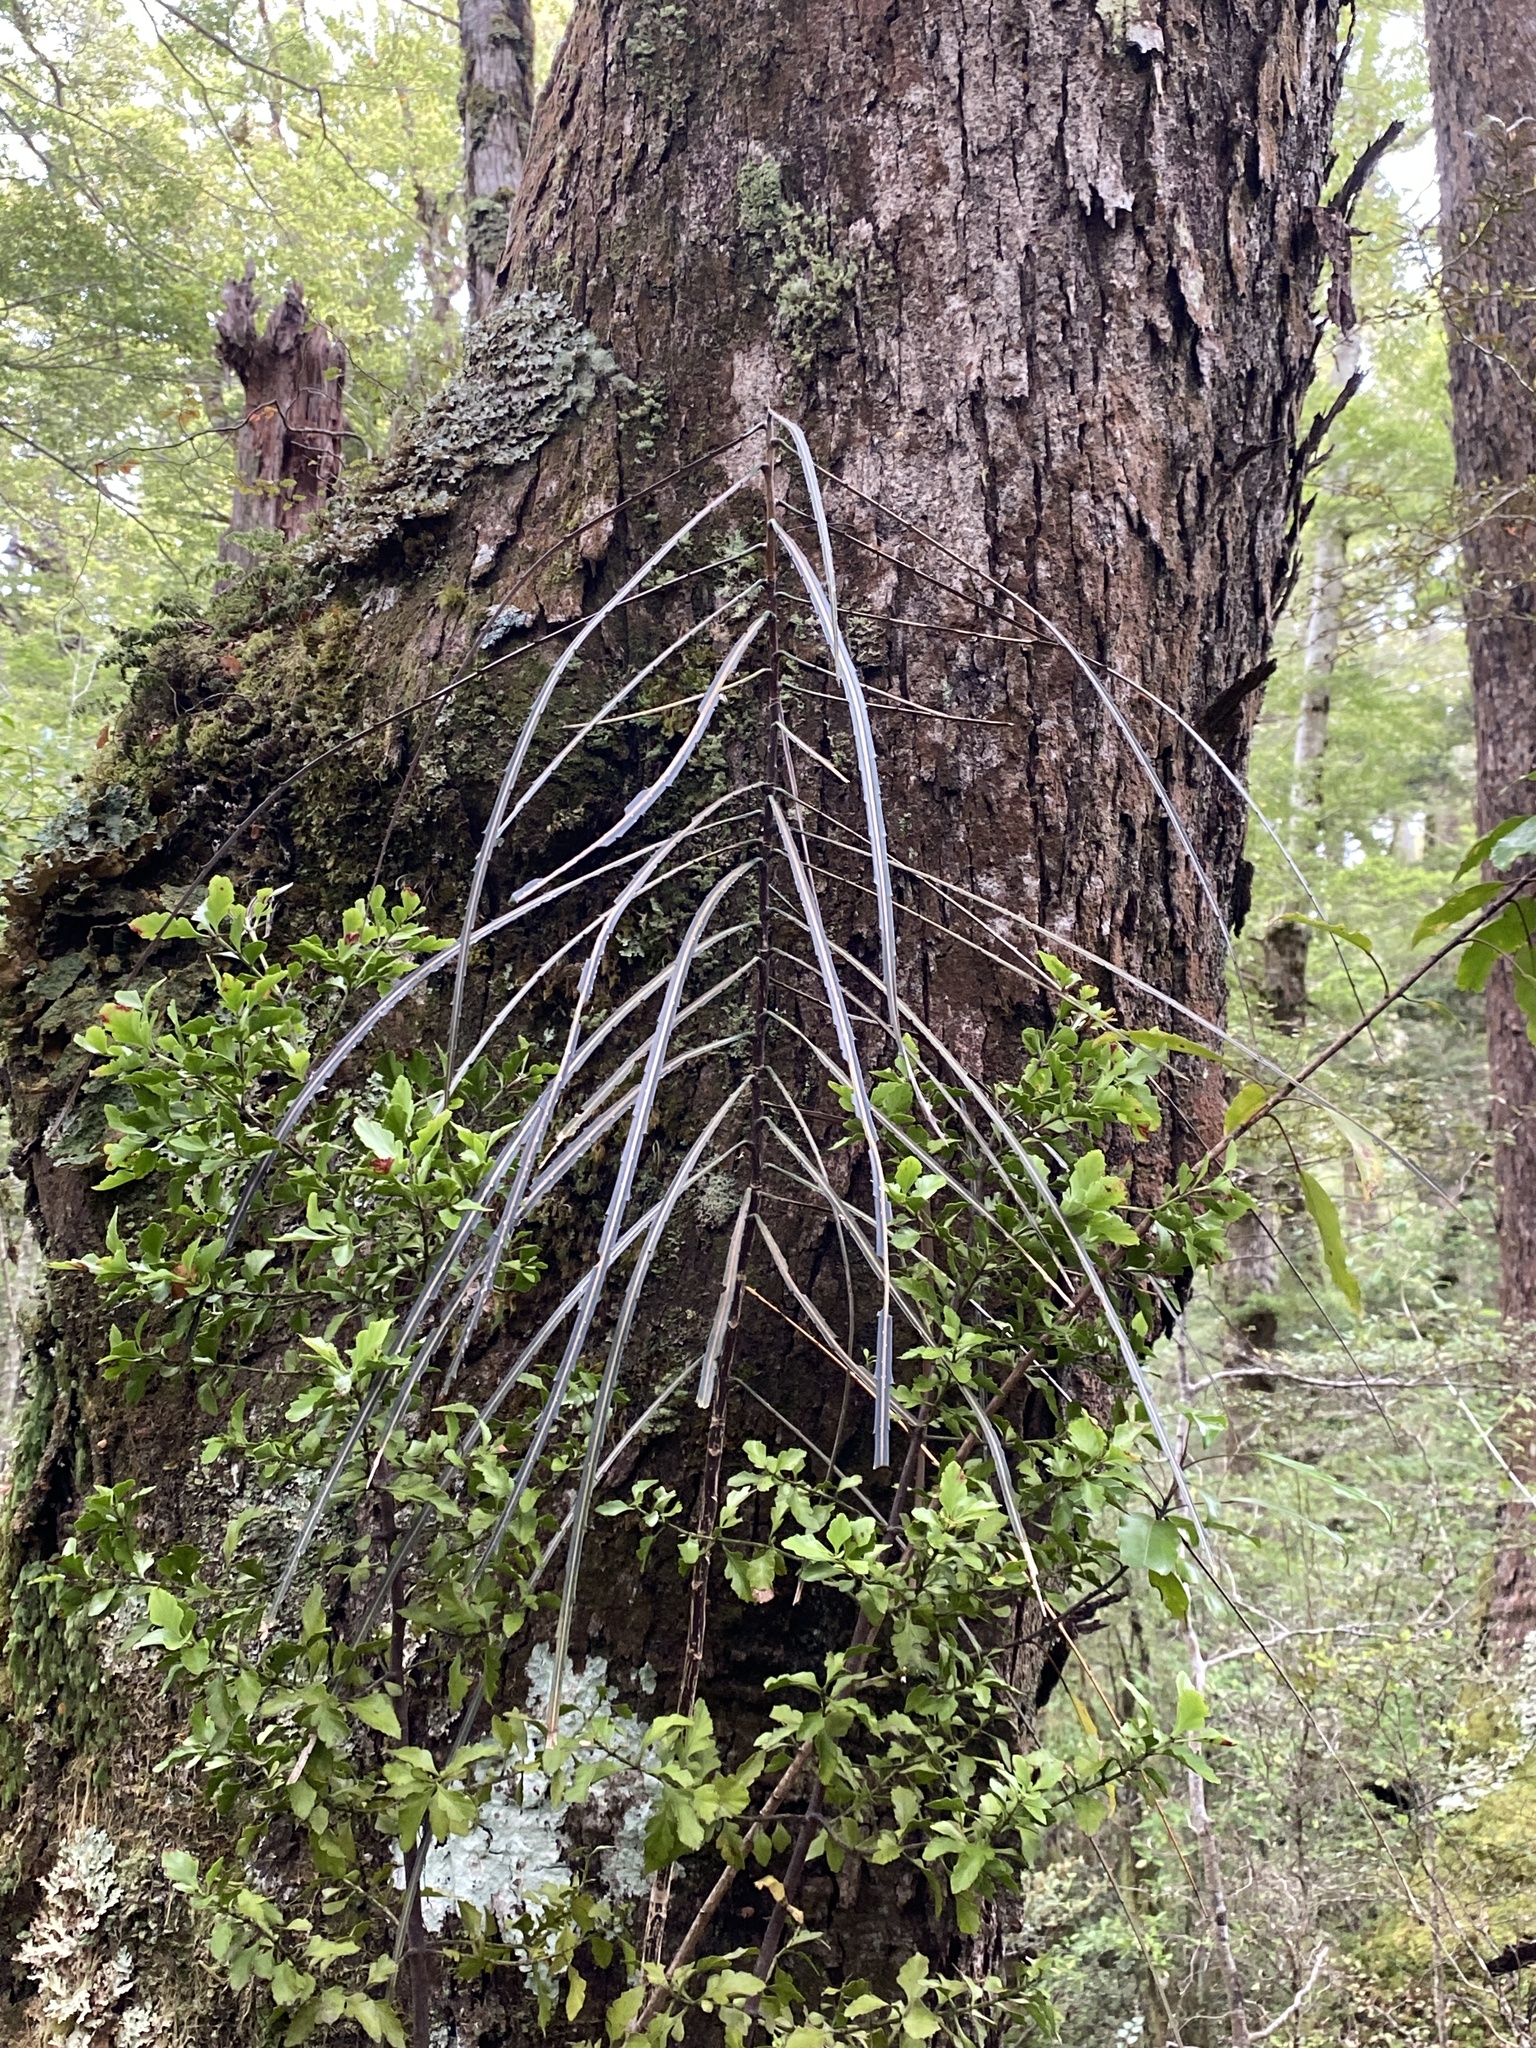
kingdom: Plantae
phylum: Tracheophyta
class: Magnoliopsida
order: Apiales
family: Araliaceae
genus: Pseudopanax
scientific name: Pseudopanax crassifolius
